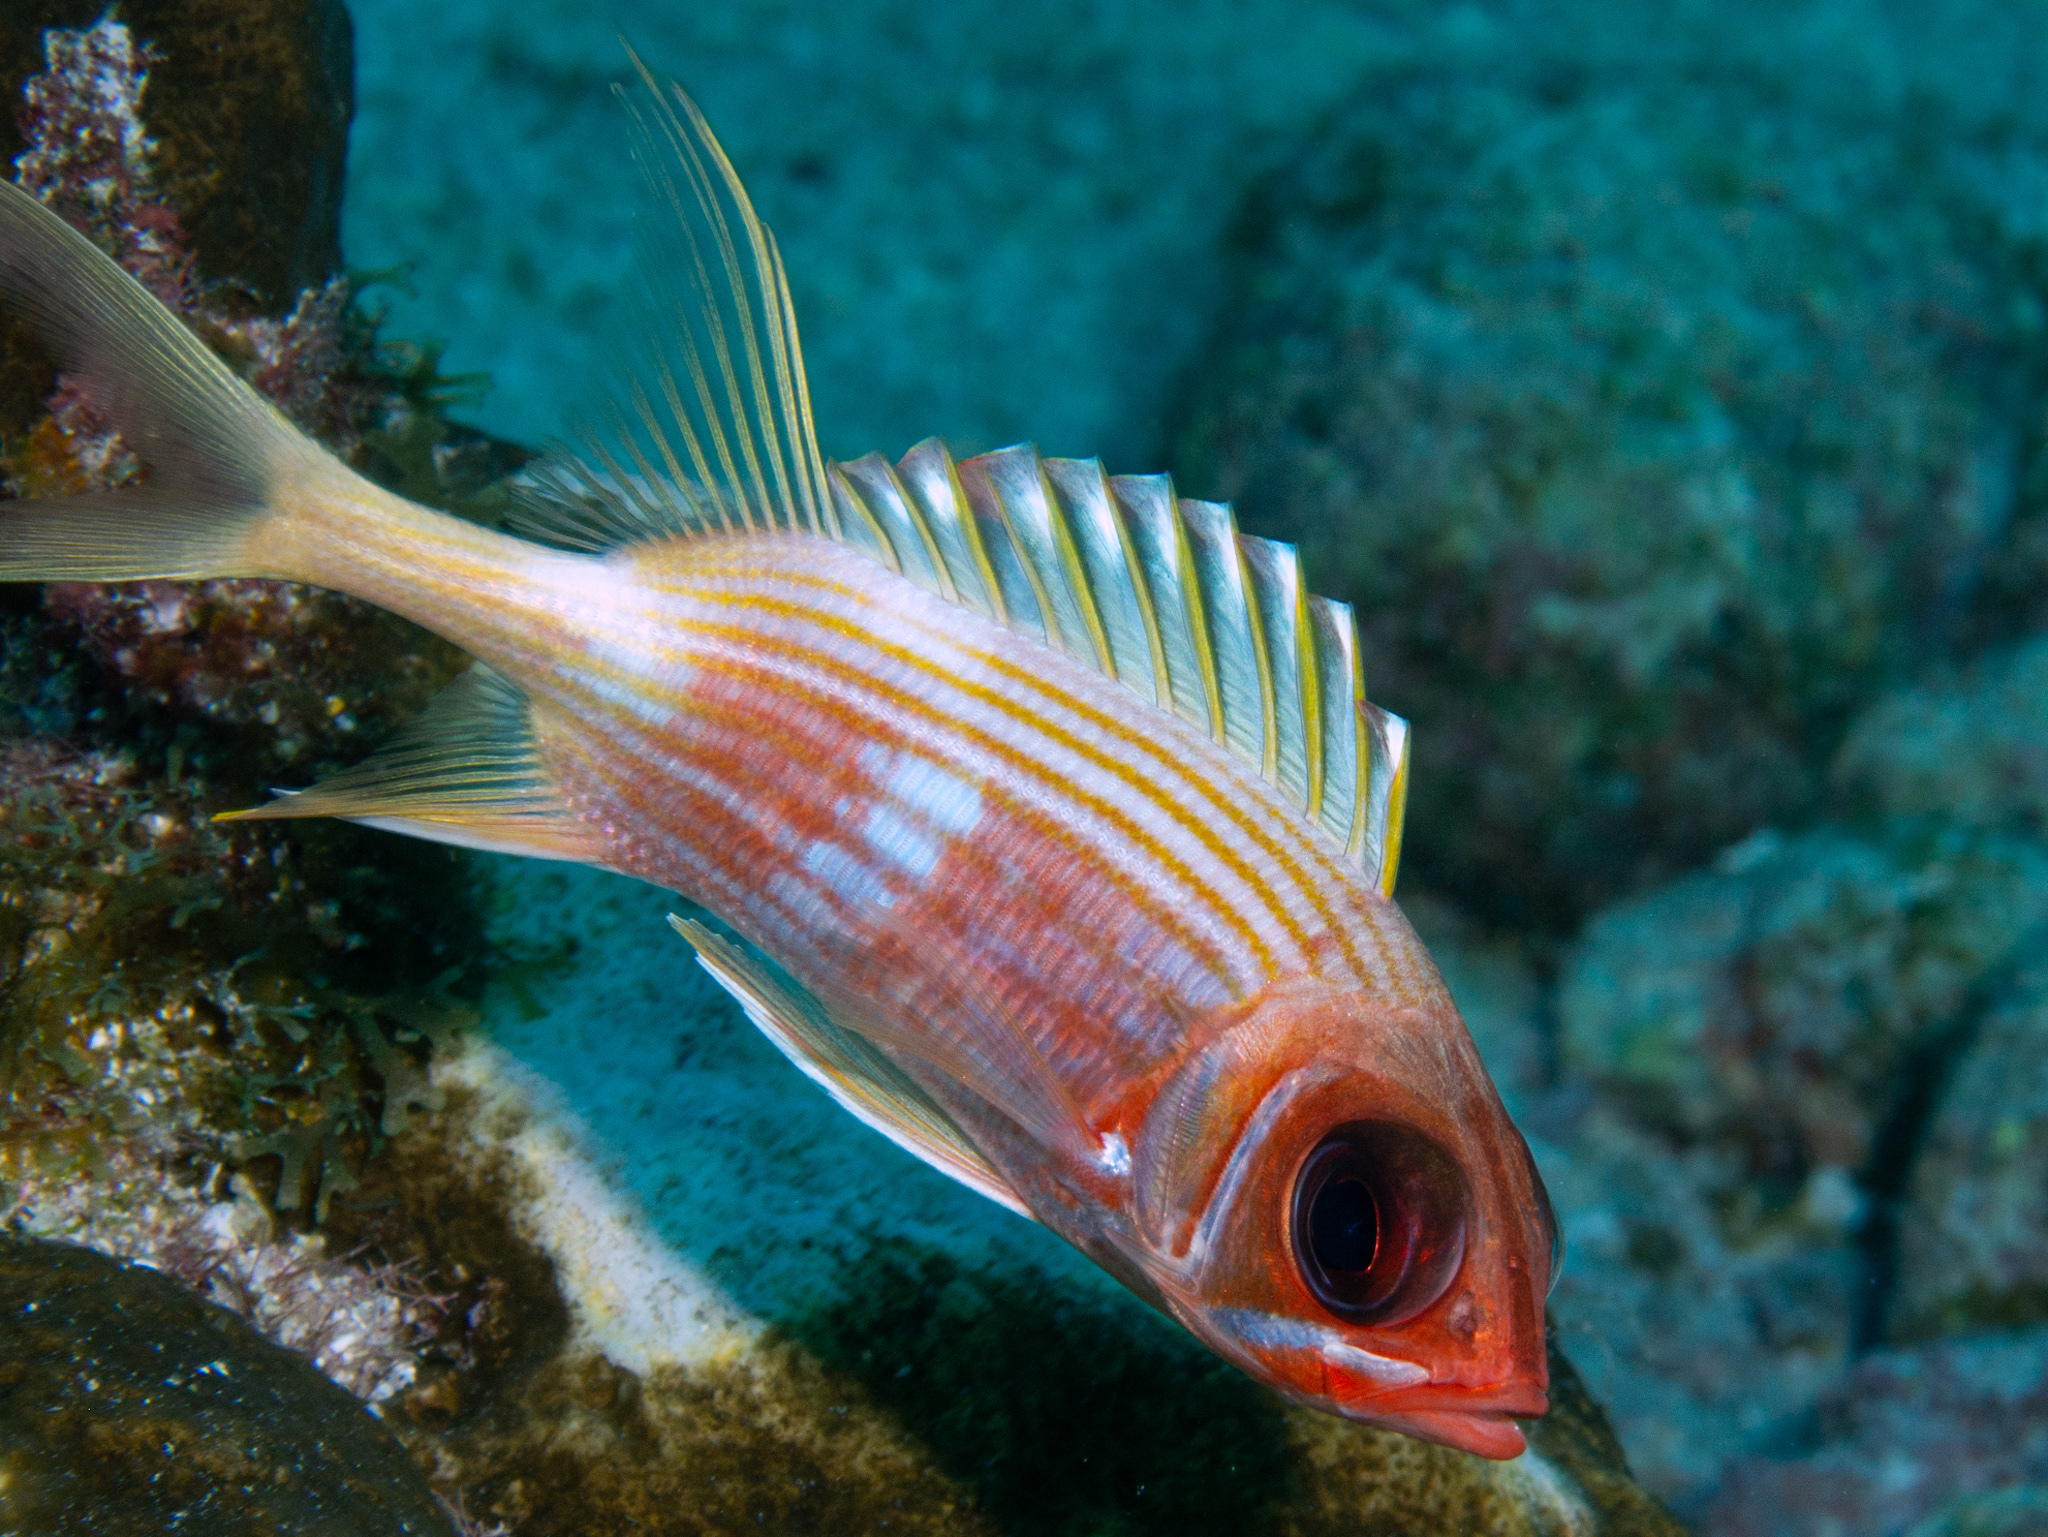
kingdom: Animalia
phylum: Chordata
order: Beryciformes
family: Holocentridae
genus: Holocentrus
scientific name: Holocentrus rufus
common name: Longspine squirrelfish
